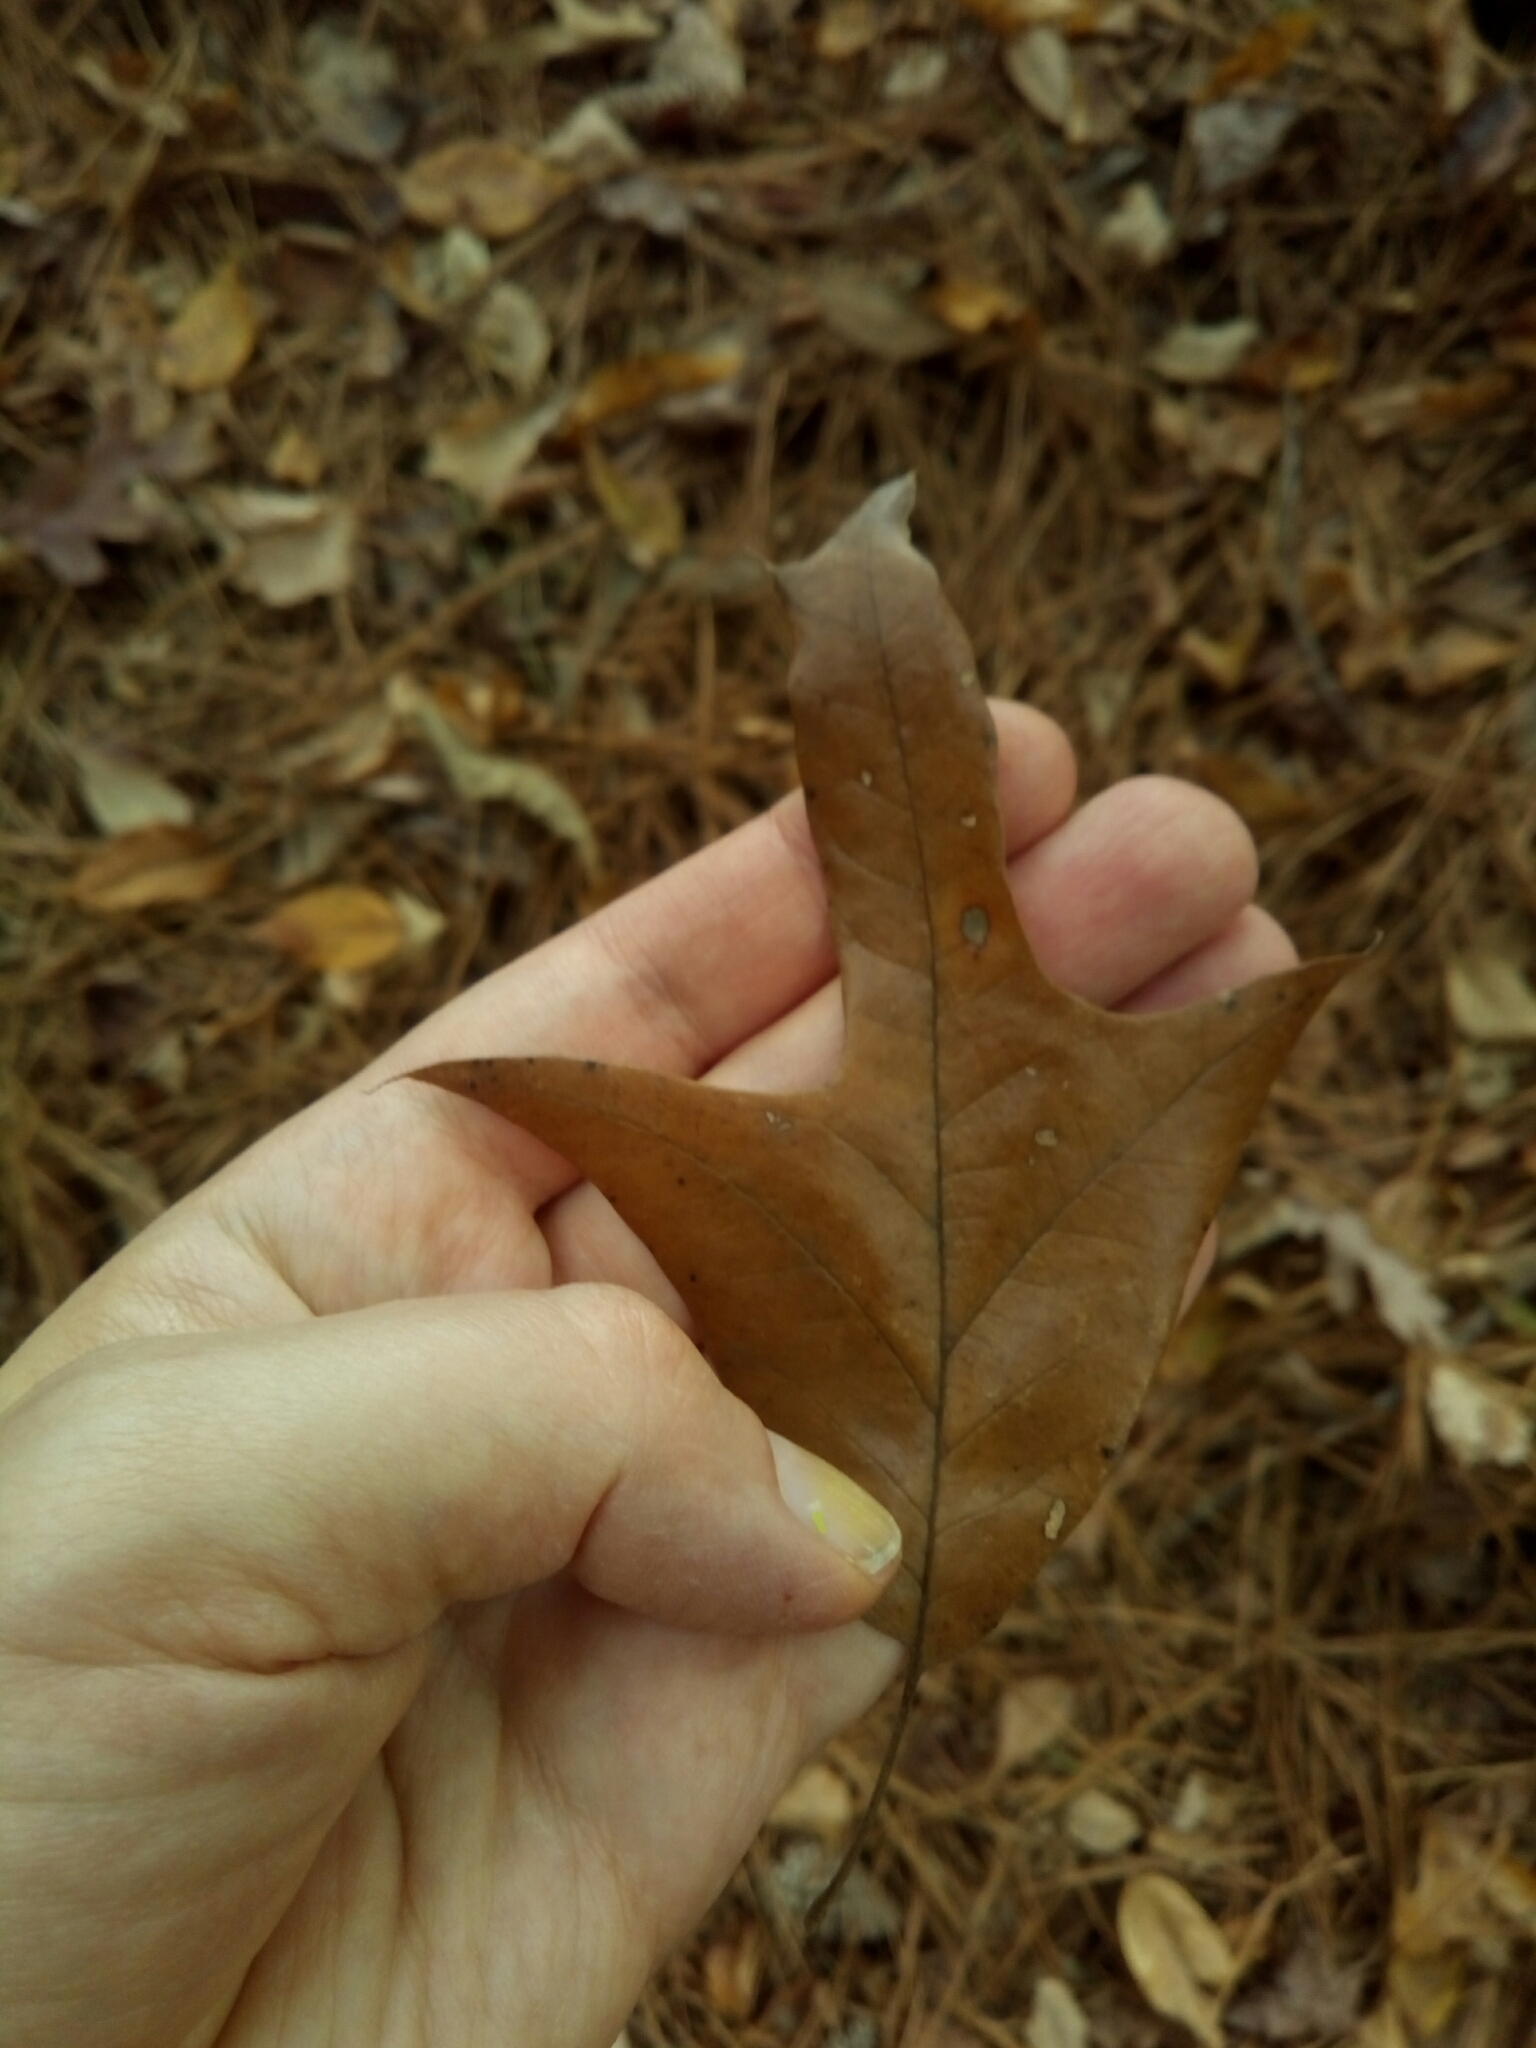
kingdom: Plantae
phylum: Tracheophyta
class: Magnoliopsida
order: Fagales
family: Fagaceae
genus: Quercus
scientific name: Quercus falcata
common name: Southern red oak
